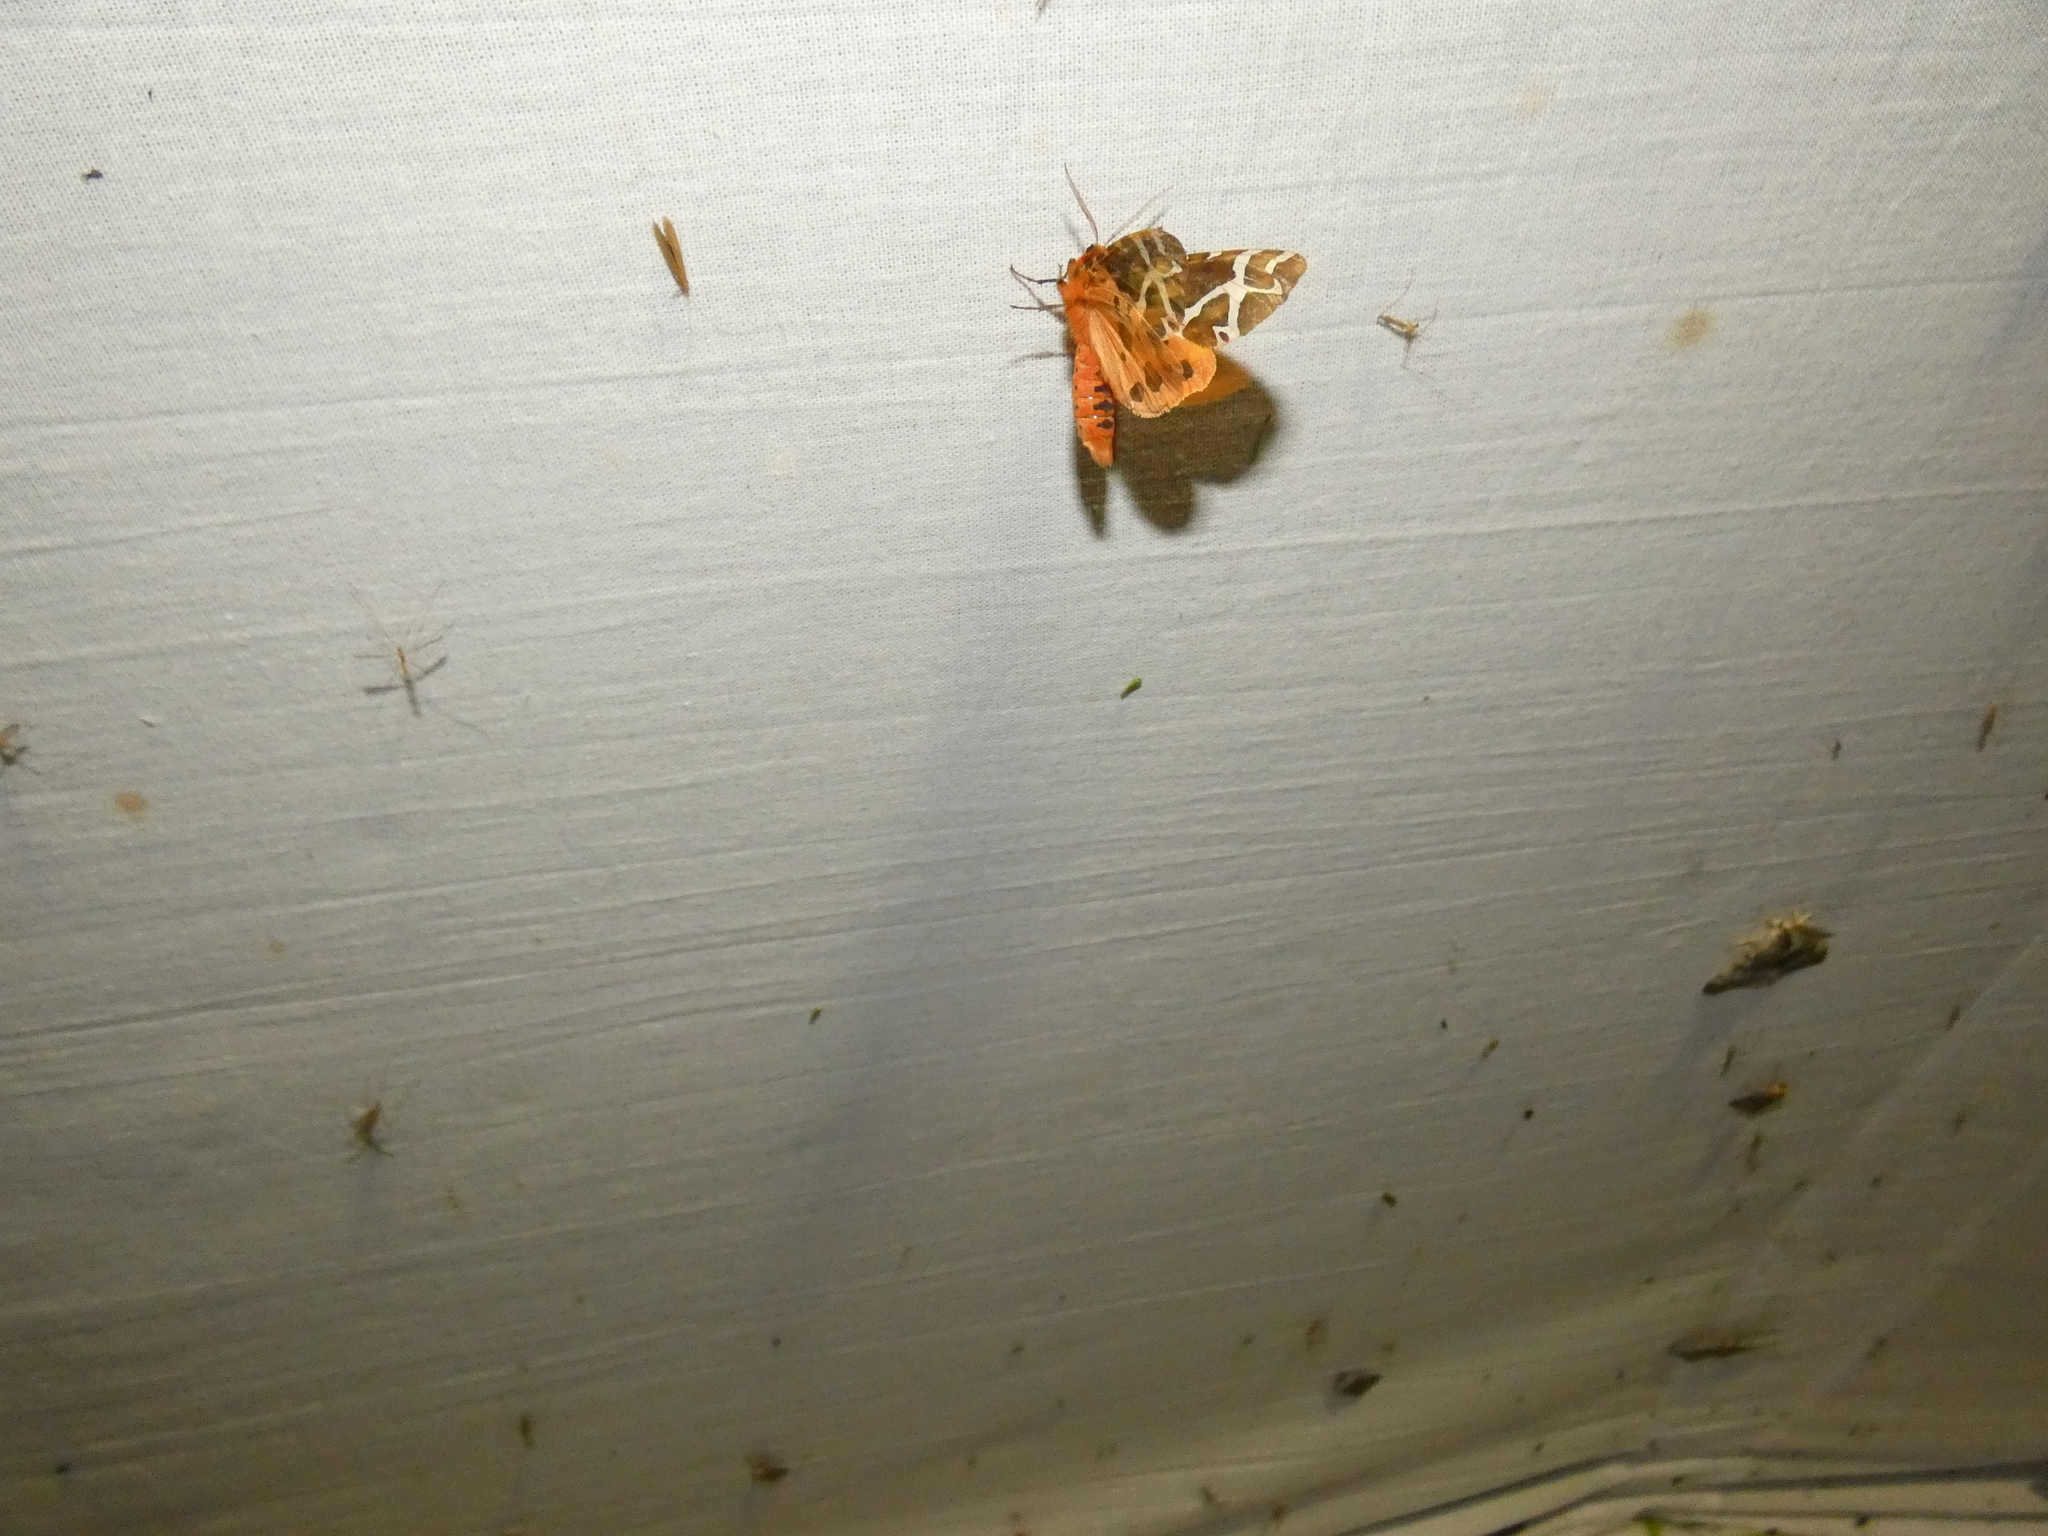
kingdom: Animalia
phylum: Arthropoda
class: Insecta
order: Lepidoptera
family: Erebidae
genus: Arctia
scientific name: Arctia caja
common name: Garden tiger
